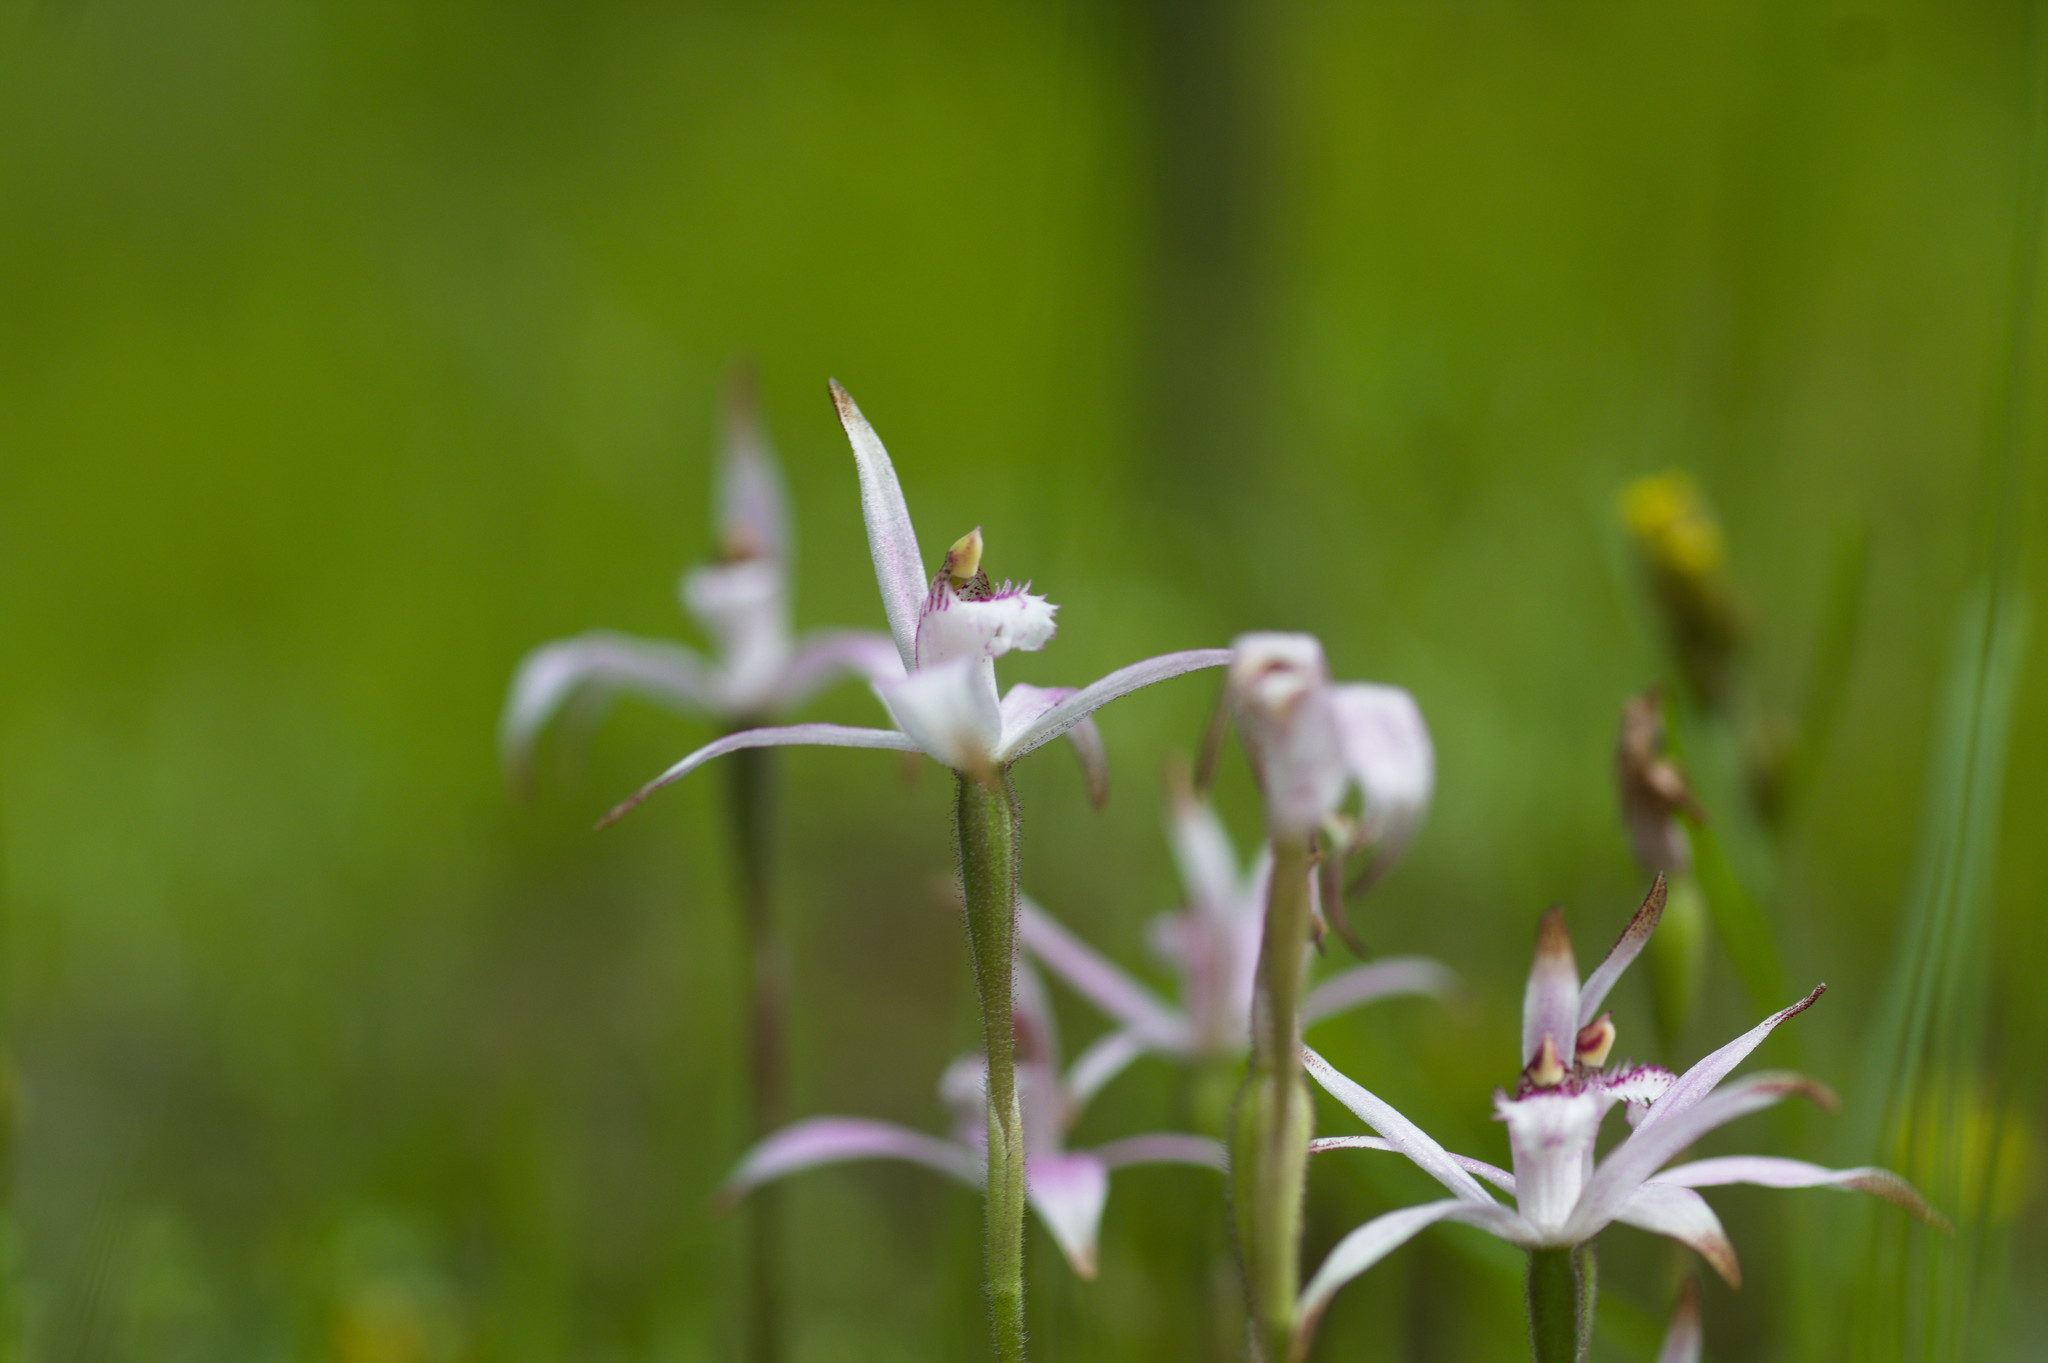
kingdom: Plantae
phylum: Tracheophyta
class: Liliopsida
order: Asparagales
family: Orchidaceae
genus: Caladenia
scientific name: Caladenia hirta
